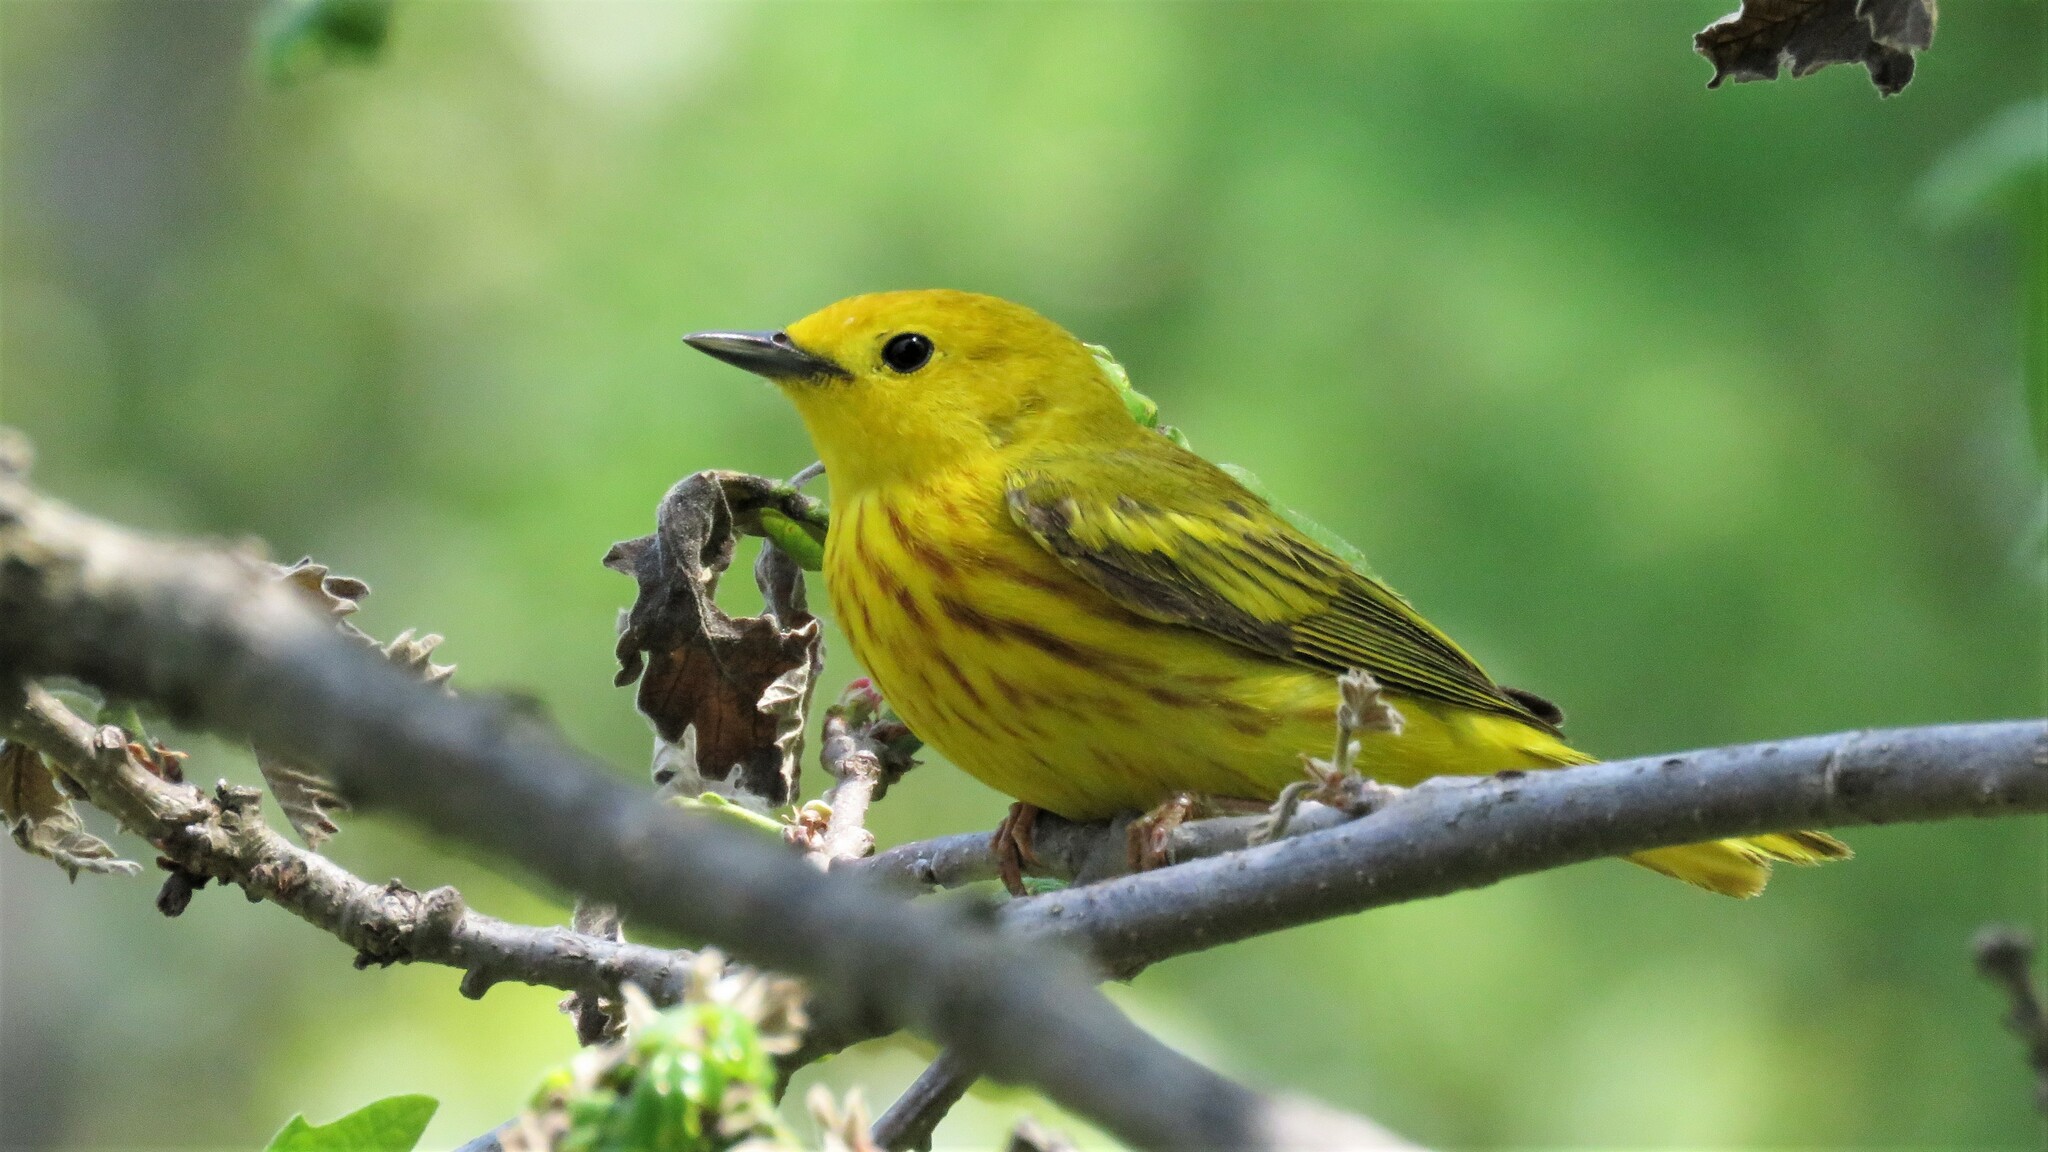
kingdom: Animalia
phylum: Chordata
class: Aves
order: Passeriformes
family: Parulidae
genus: Setophaga
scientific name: Setophaga petechia
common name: Yellow warbler
